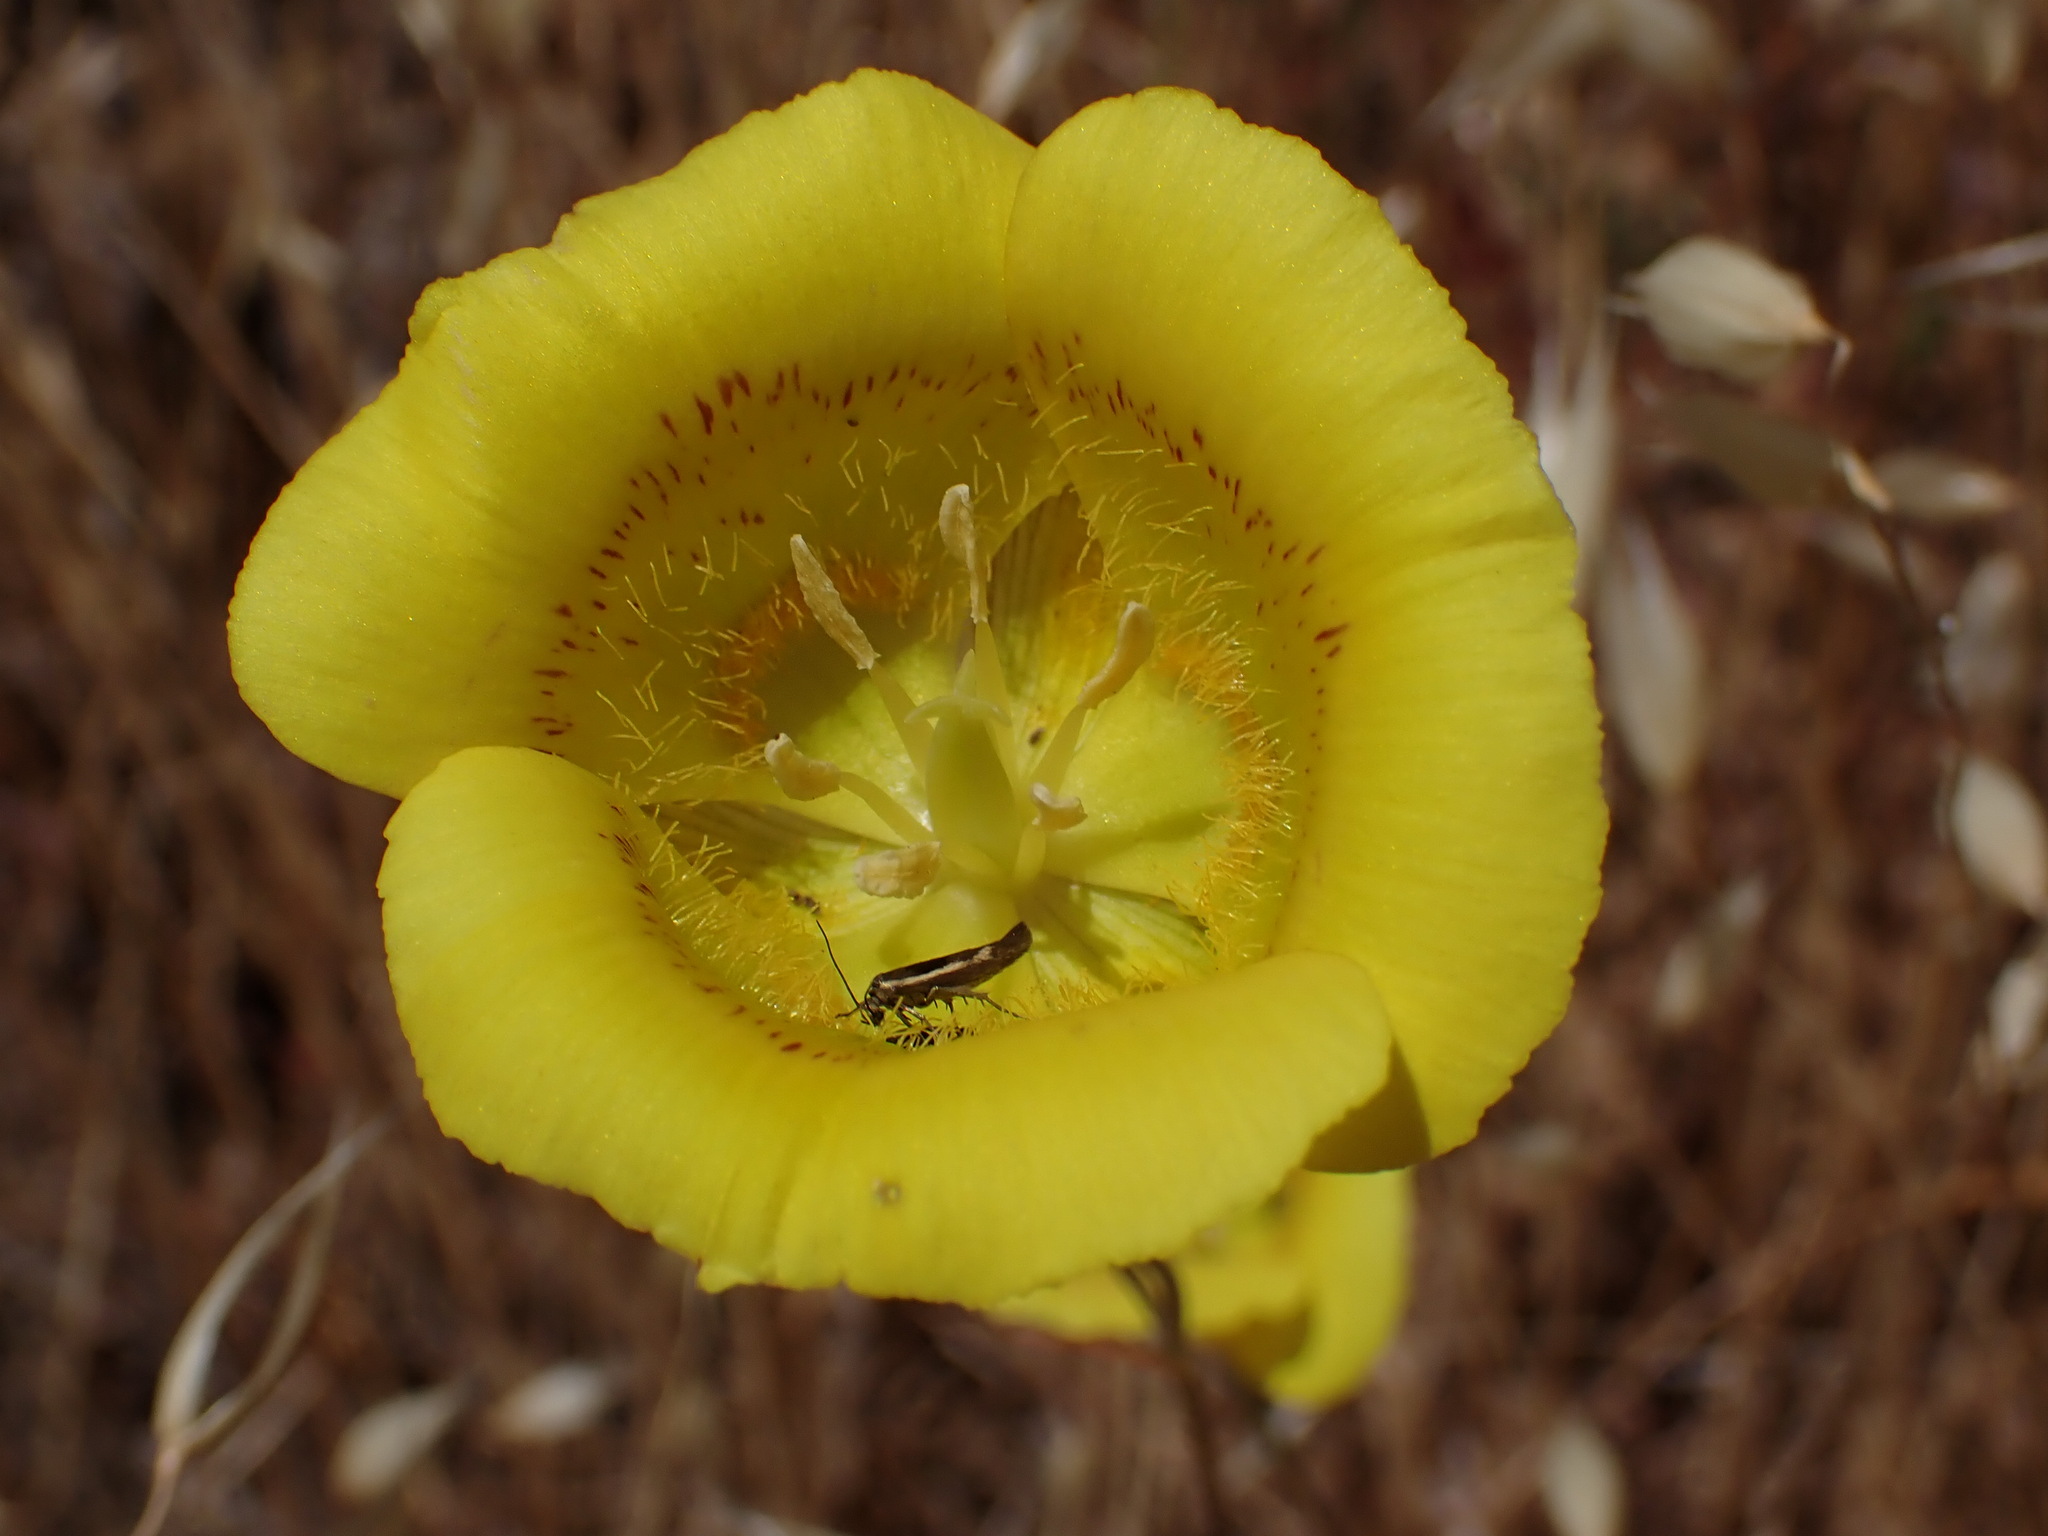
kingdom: Plantae
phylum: Tracheophyta
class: Liliopsida
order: Liliales
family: Liliaceae
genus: Calochortus
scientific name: Calochortus luteus
